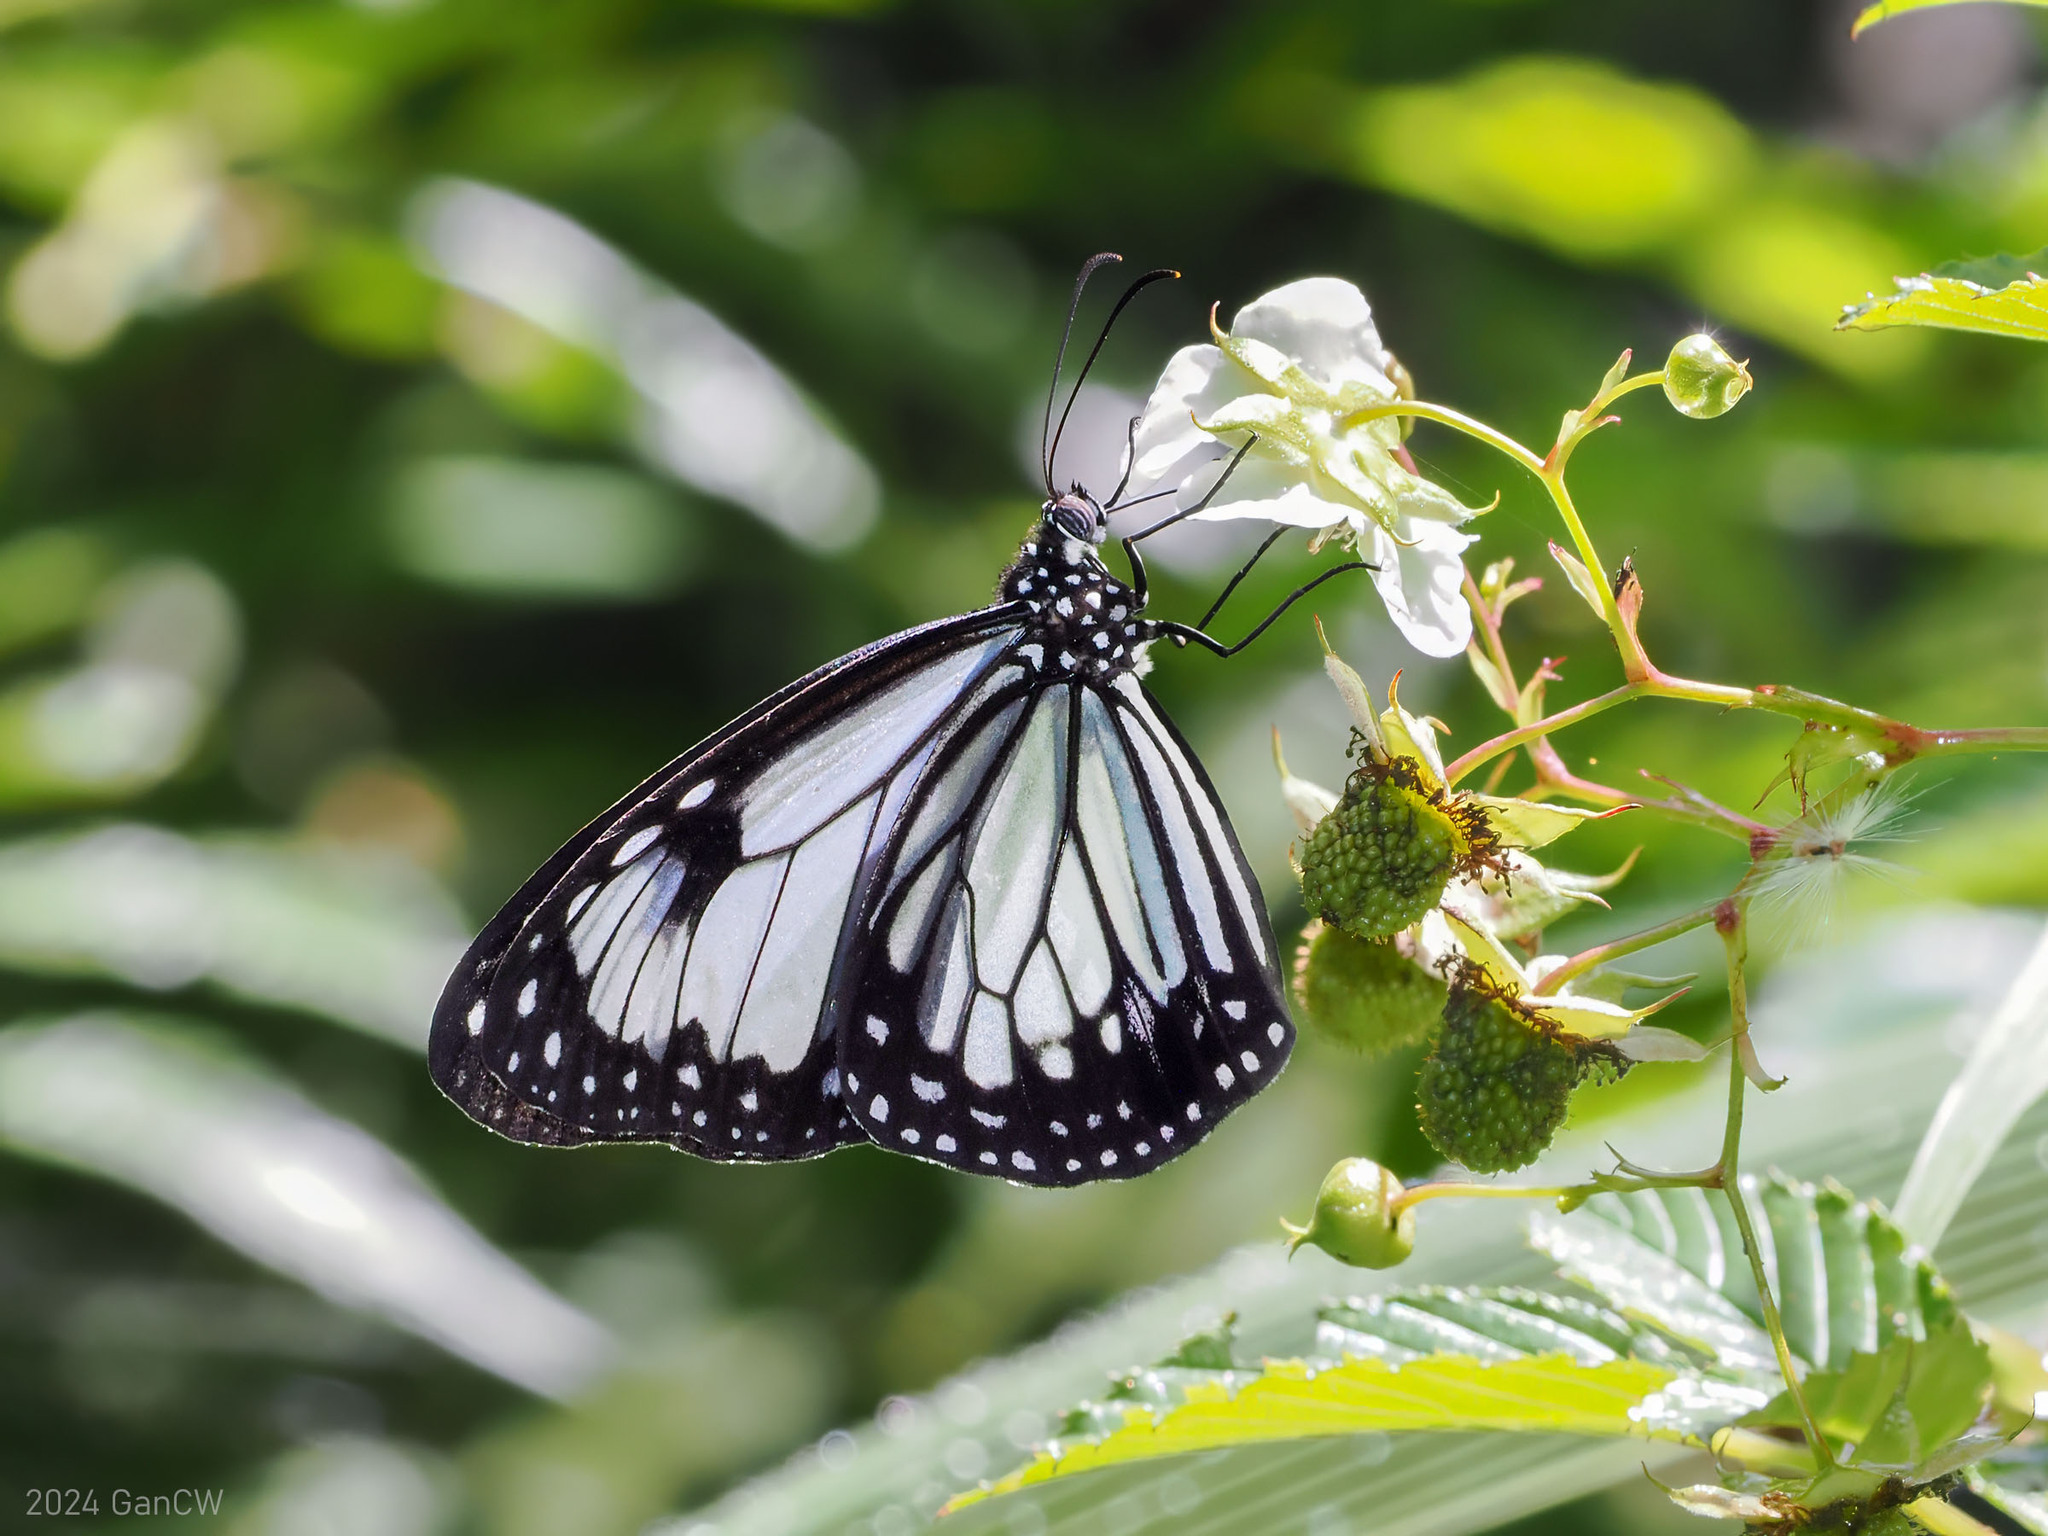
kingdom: Animalia
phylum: Arthropoda
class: Insecta
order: Lepidoptera
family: Nymphalidae
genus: Parantica
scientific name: Parantica vitrina
